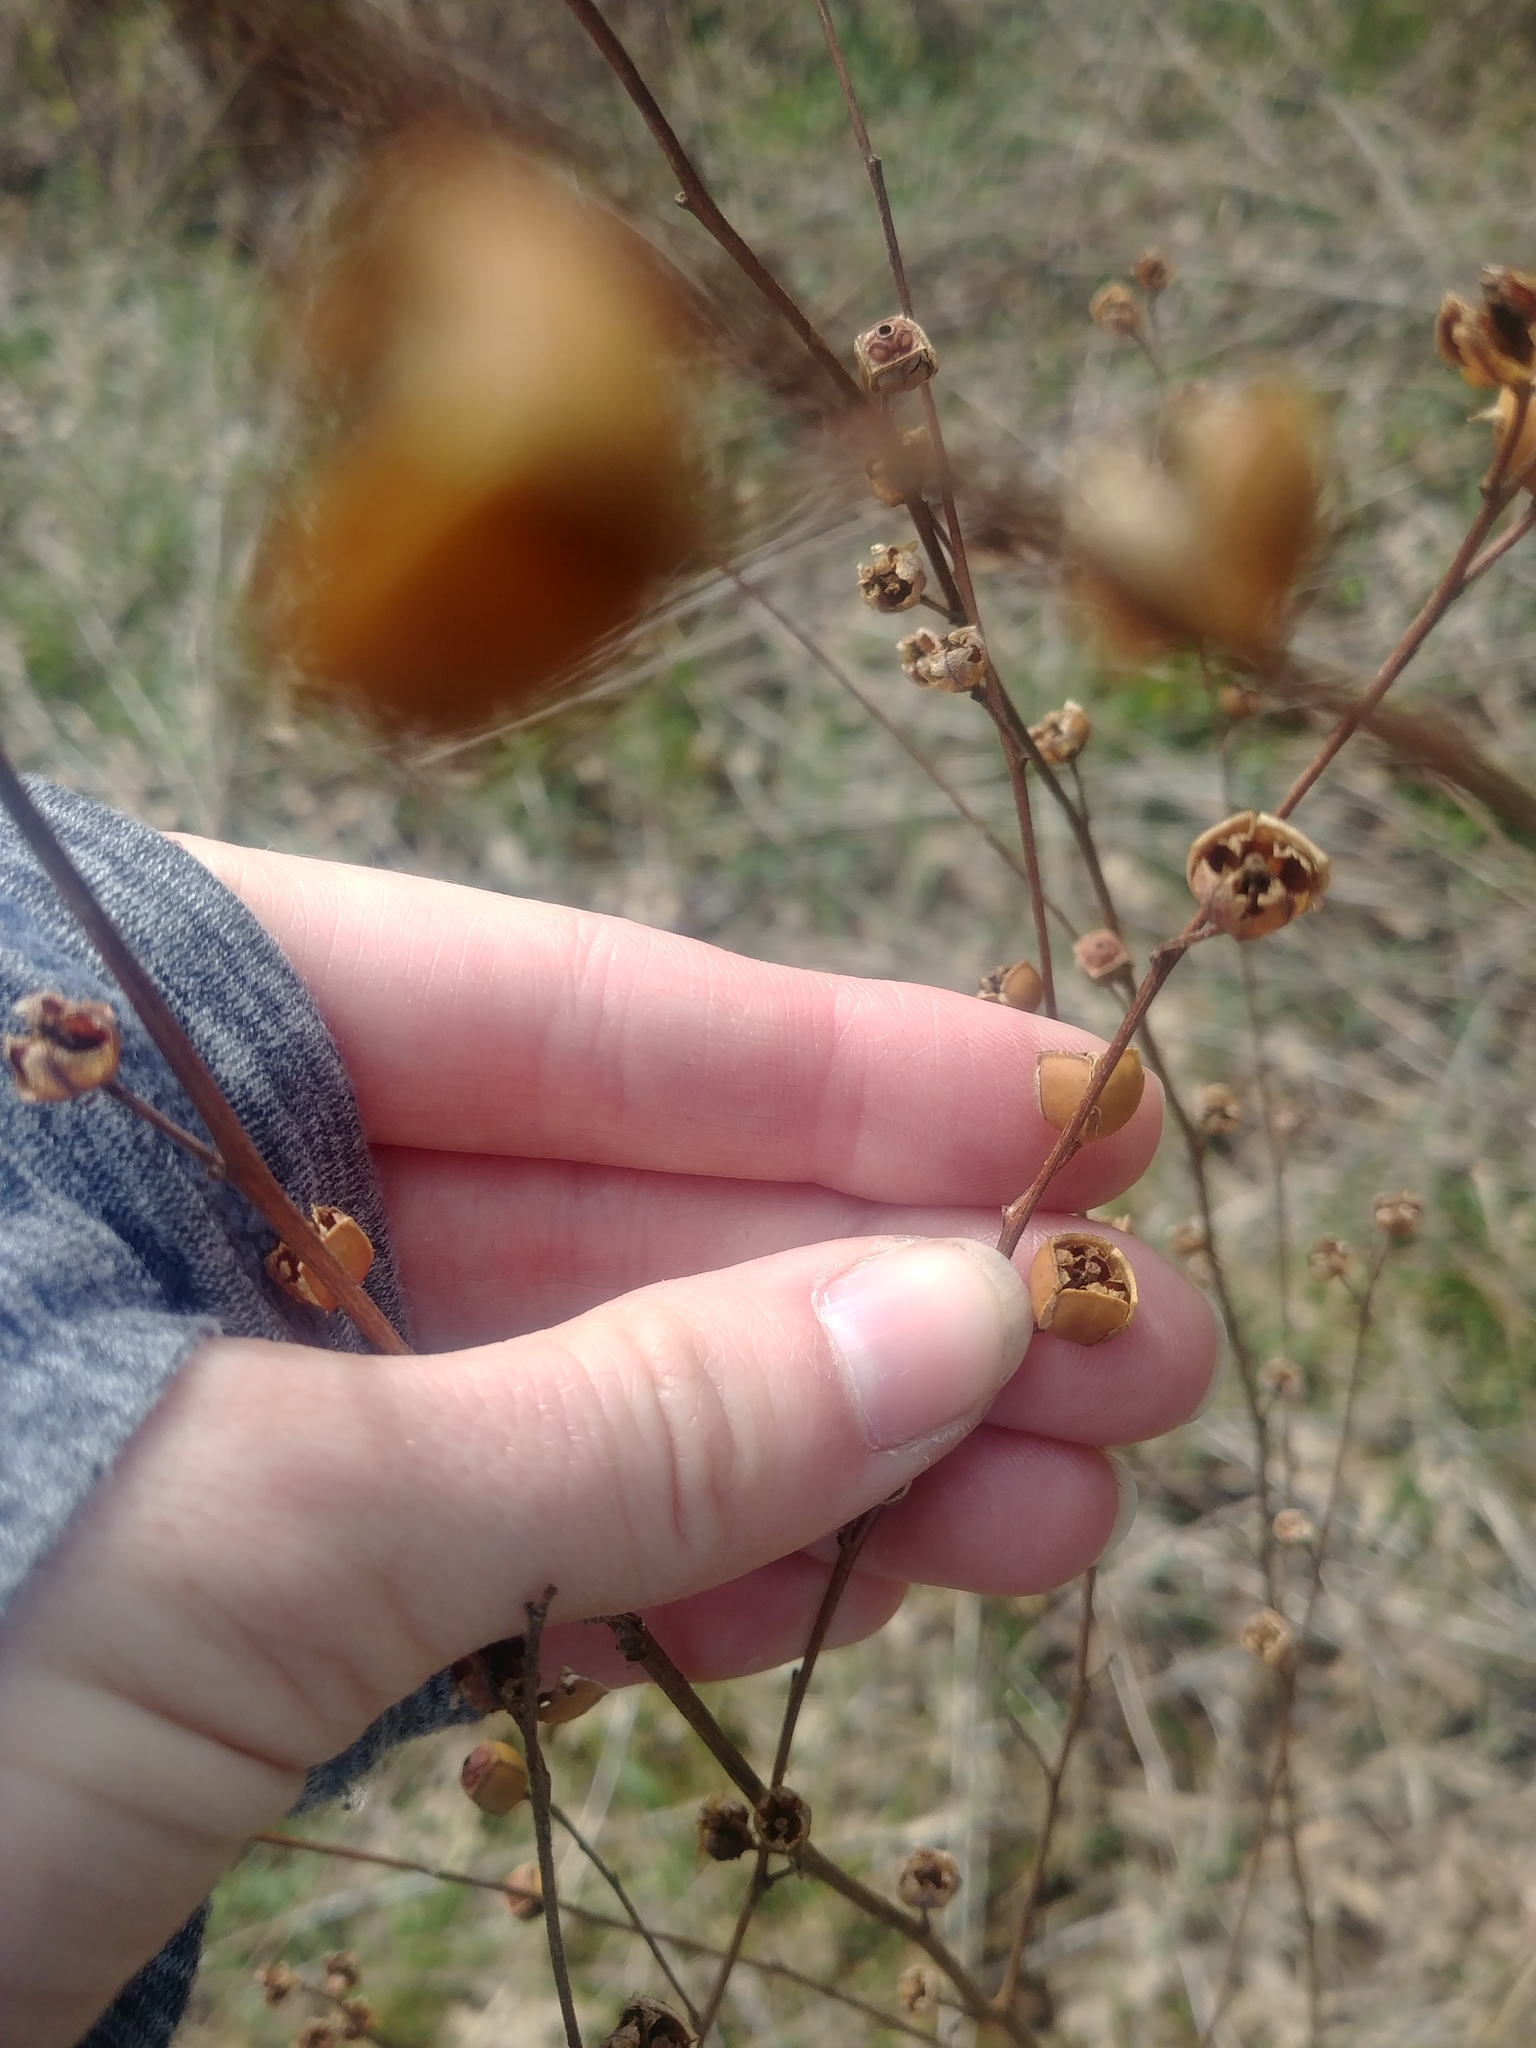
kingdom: Plantae
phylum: Tracheophyta
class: Magnoliopsida
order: Myrtales
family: Onagraceae
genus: Ludwigia
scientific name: Ludwigia alternifolia
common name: Rattlebox
